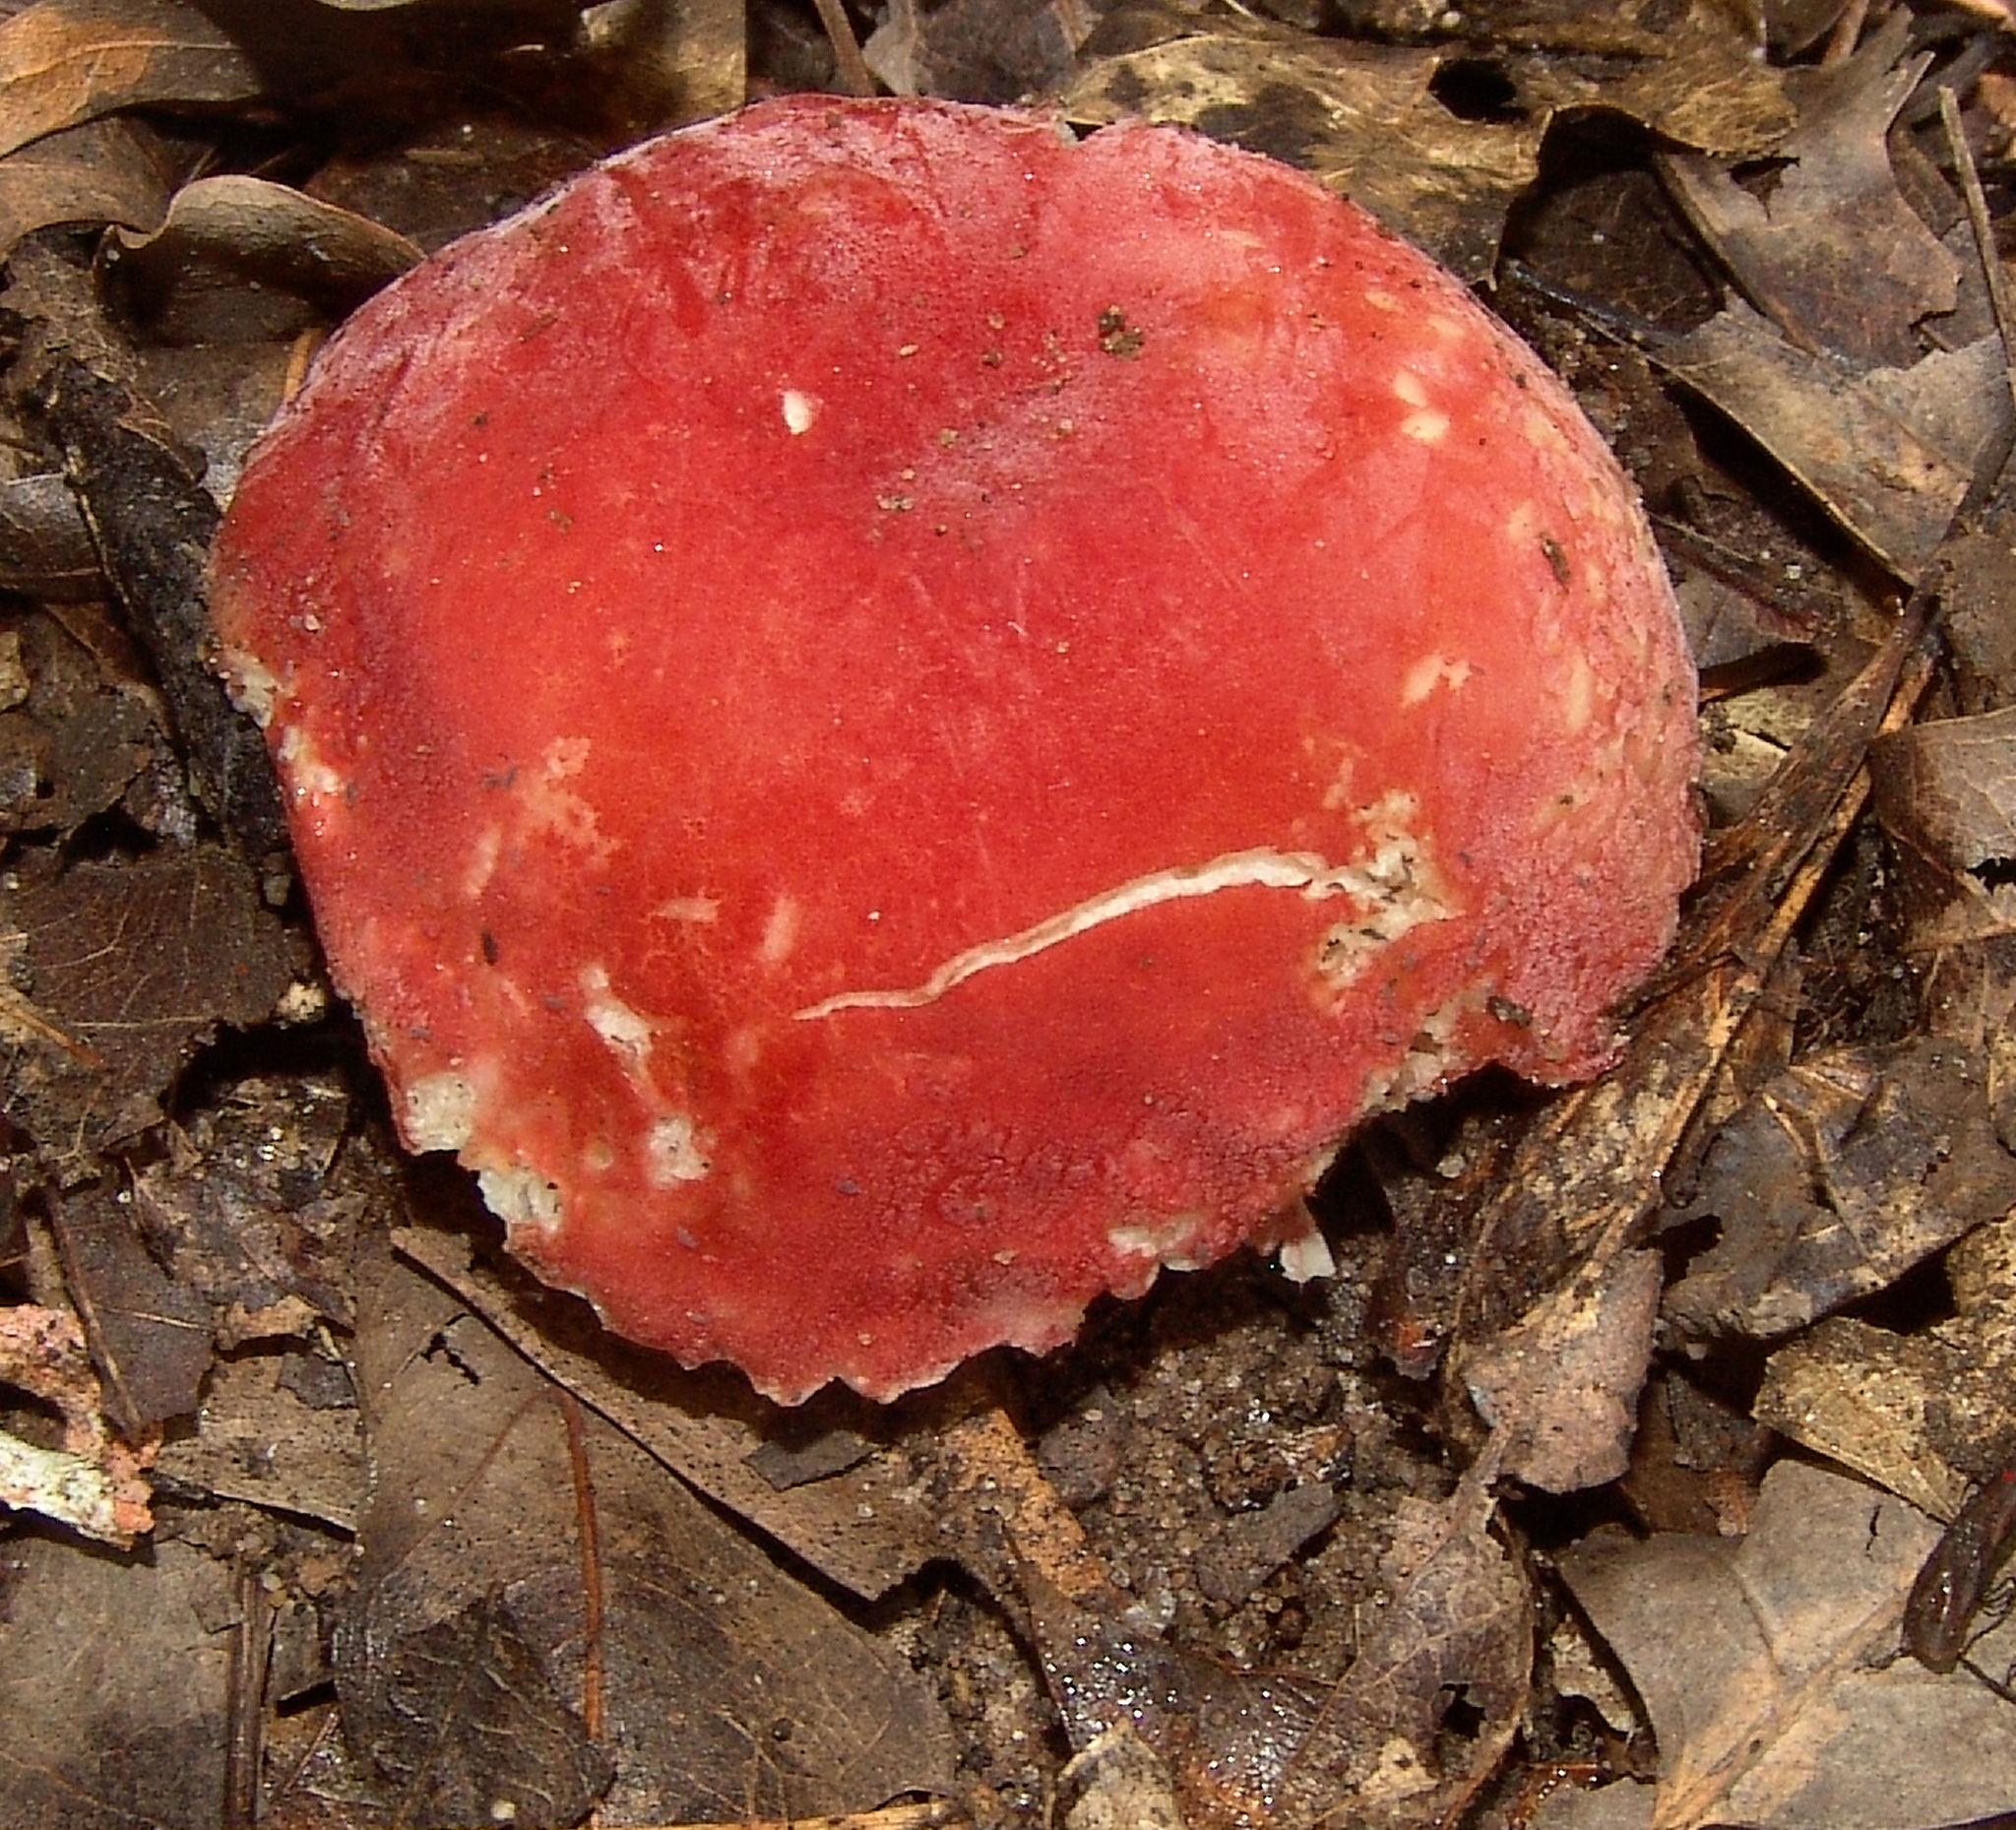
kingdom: Fungi
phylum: Basidiomycota
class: Agaricomycetes
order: Russulales
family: Russulaceae
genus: Russula
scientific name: Russula
